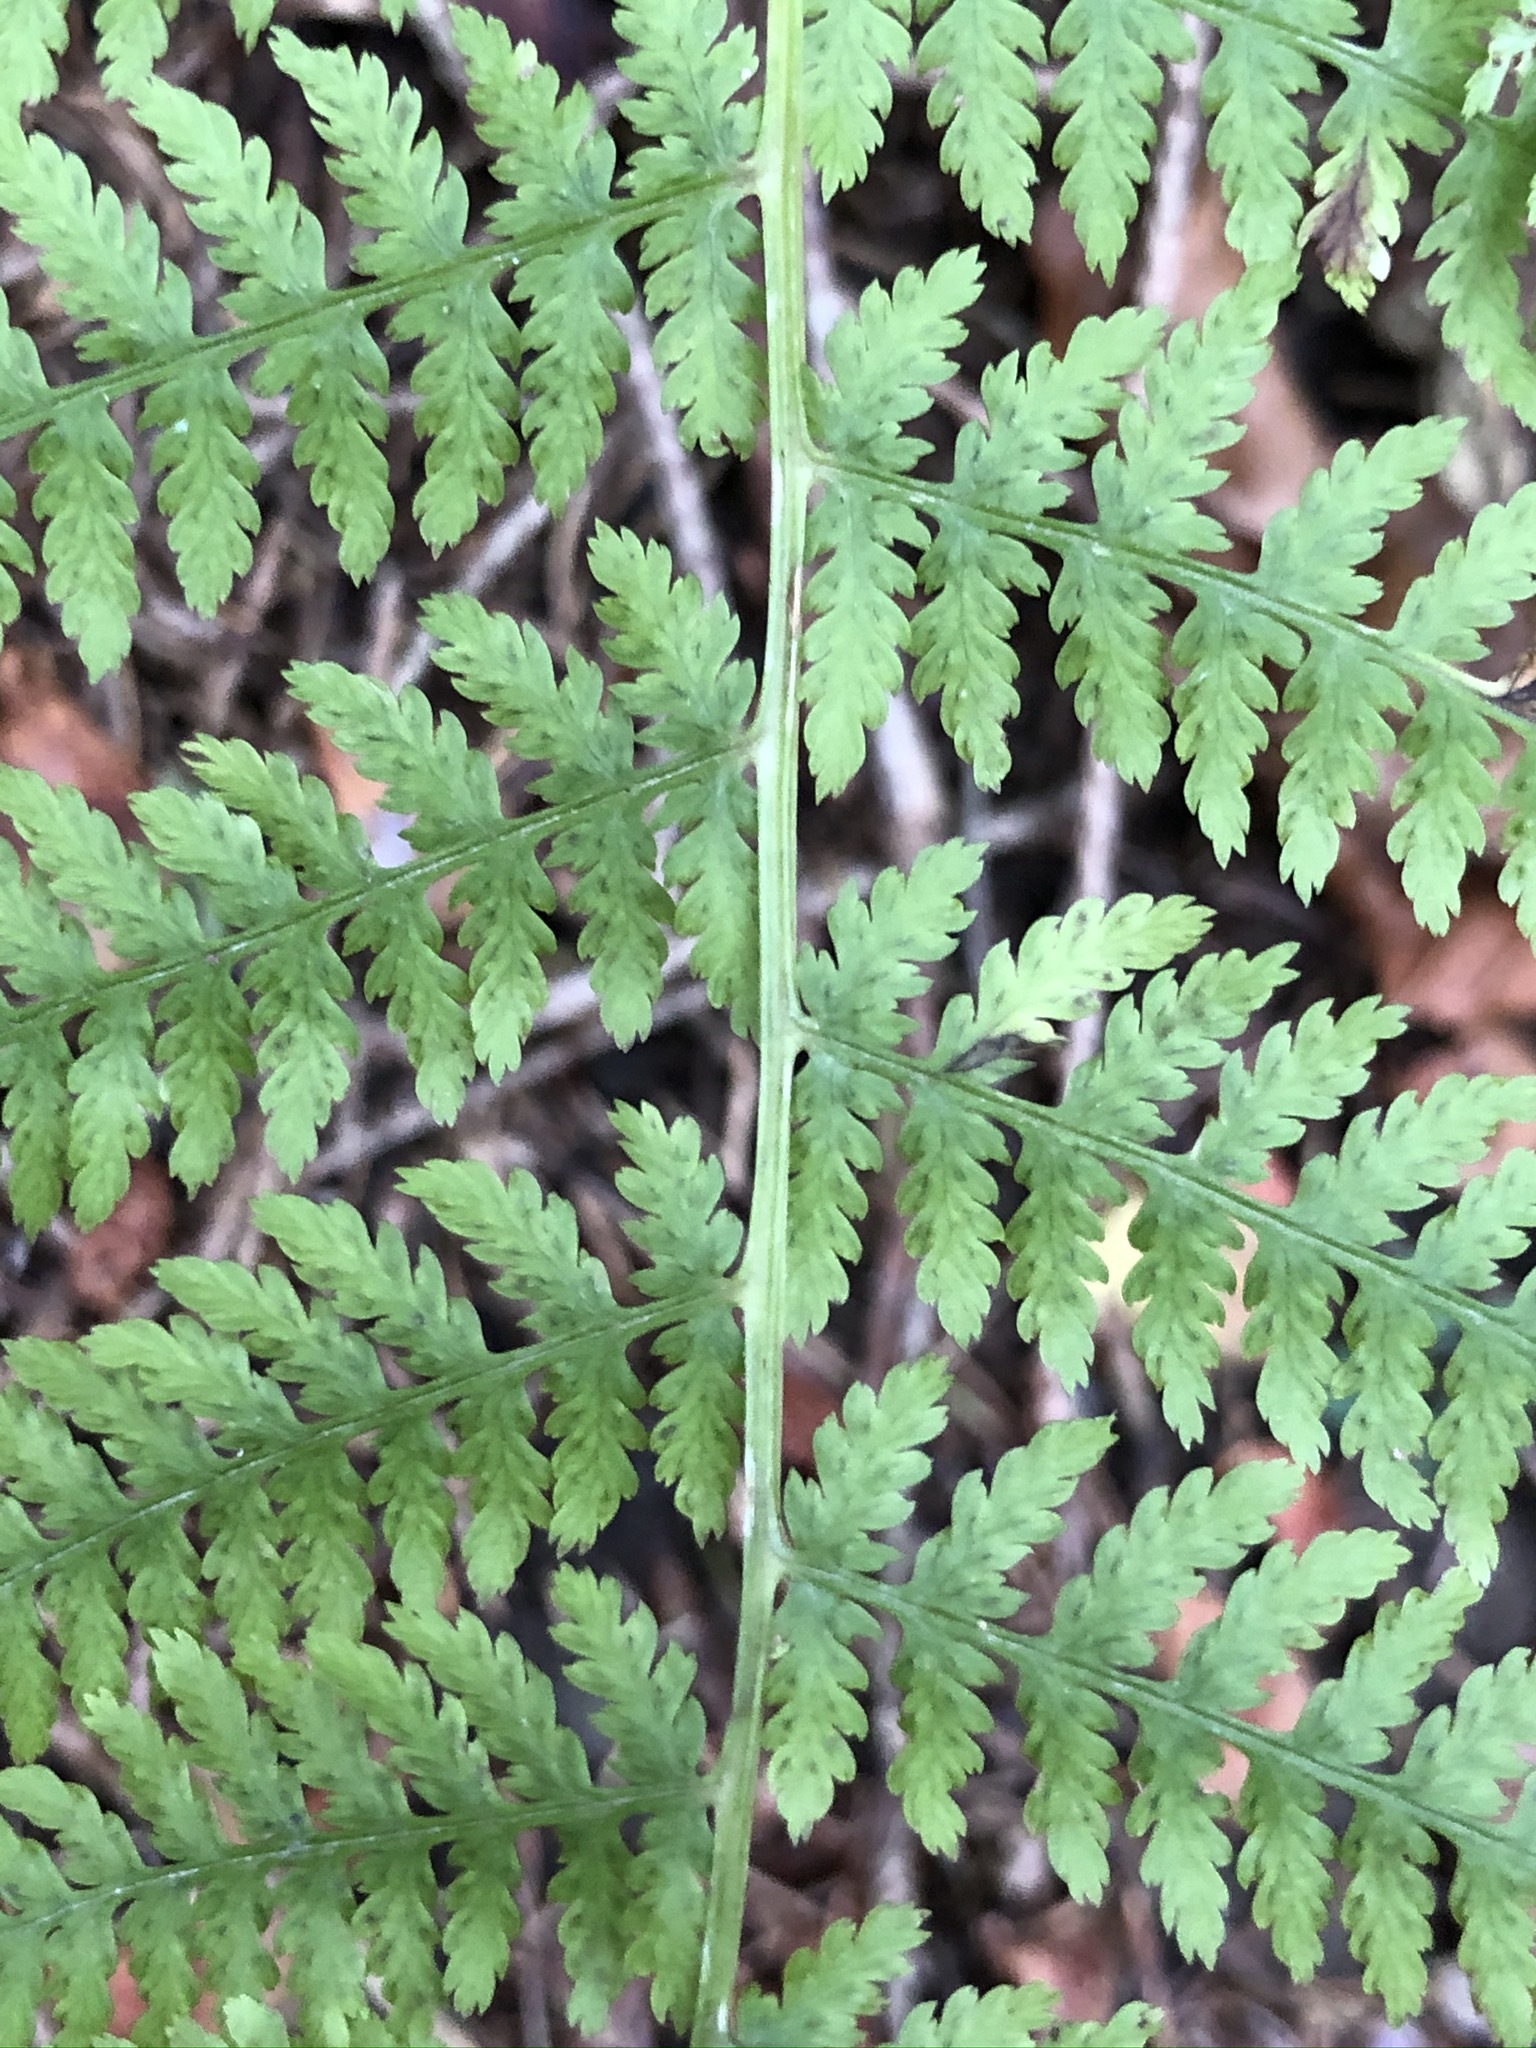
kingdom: Plantae
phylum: Tracheophyta
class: Polypodiopsida
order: Polypodiales
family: Athyriaceae
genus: Athyrium
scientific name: Athyrium filix-femina
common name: Lady fern
